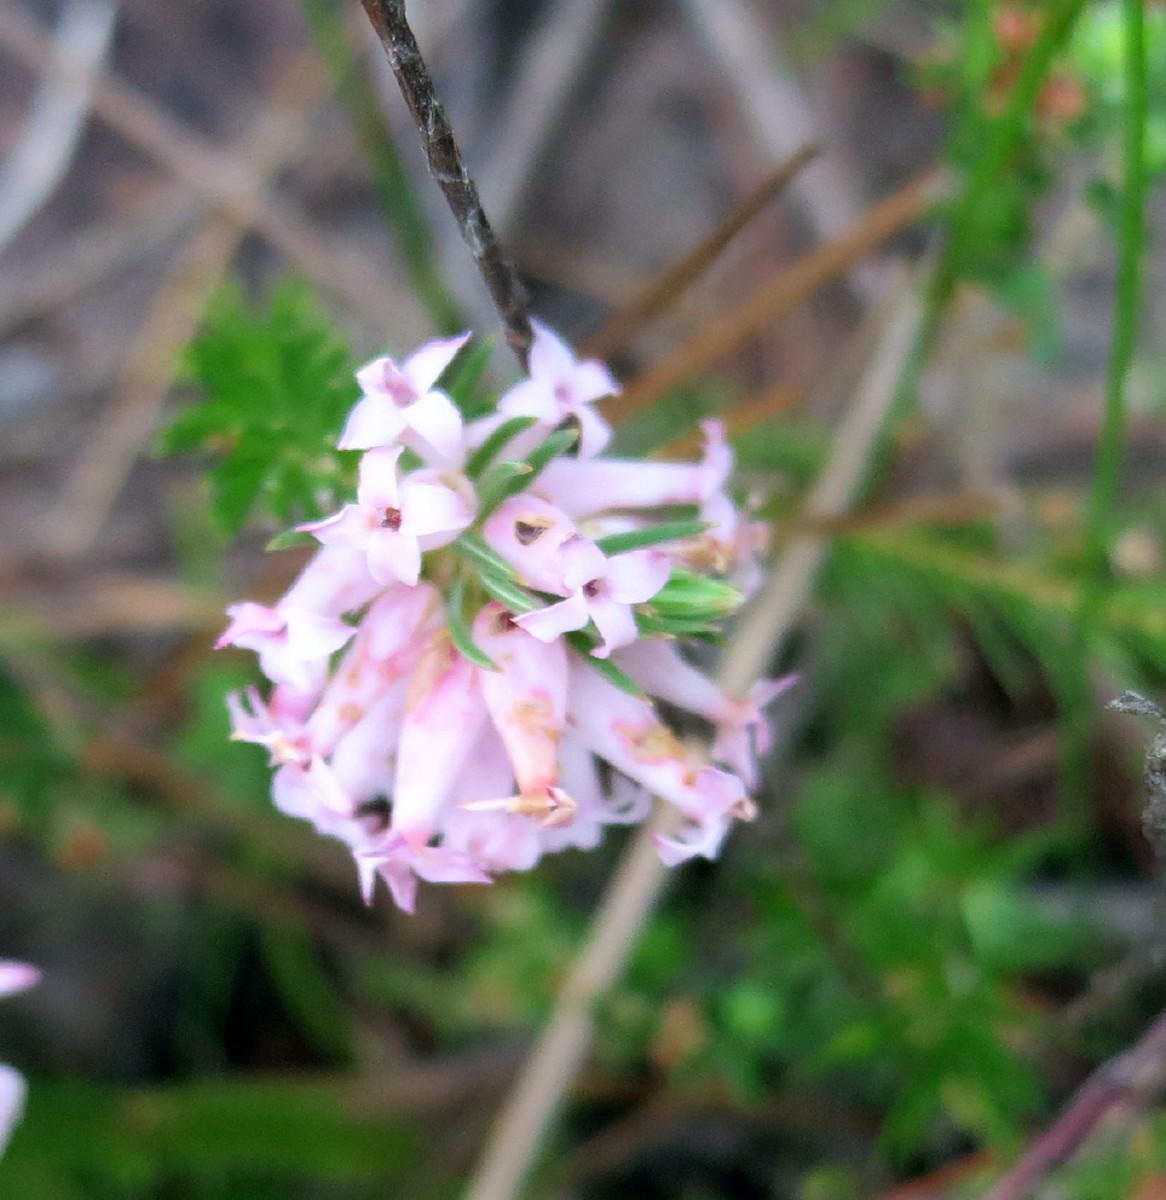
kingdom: Plantae
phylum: Tracheophyta
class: Magnoliopsida
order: Ericales
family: Ericaceae
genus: Erica
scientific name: Erica georgica
